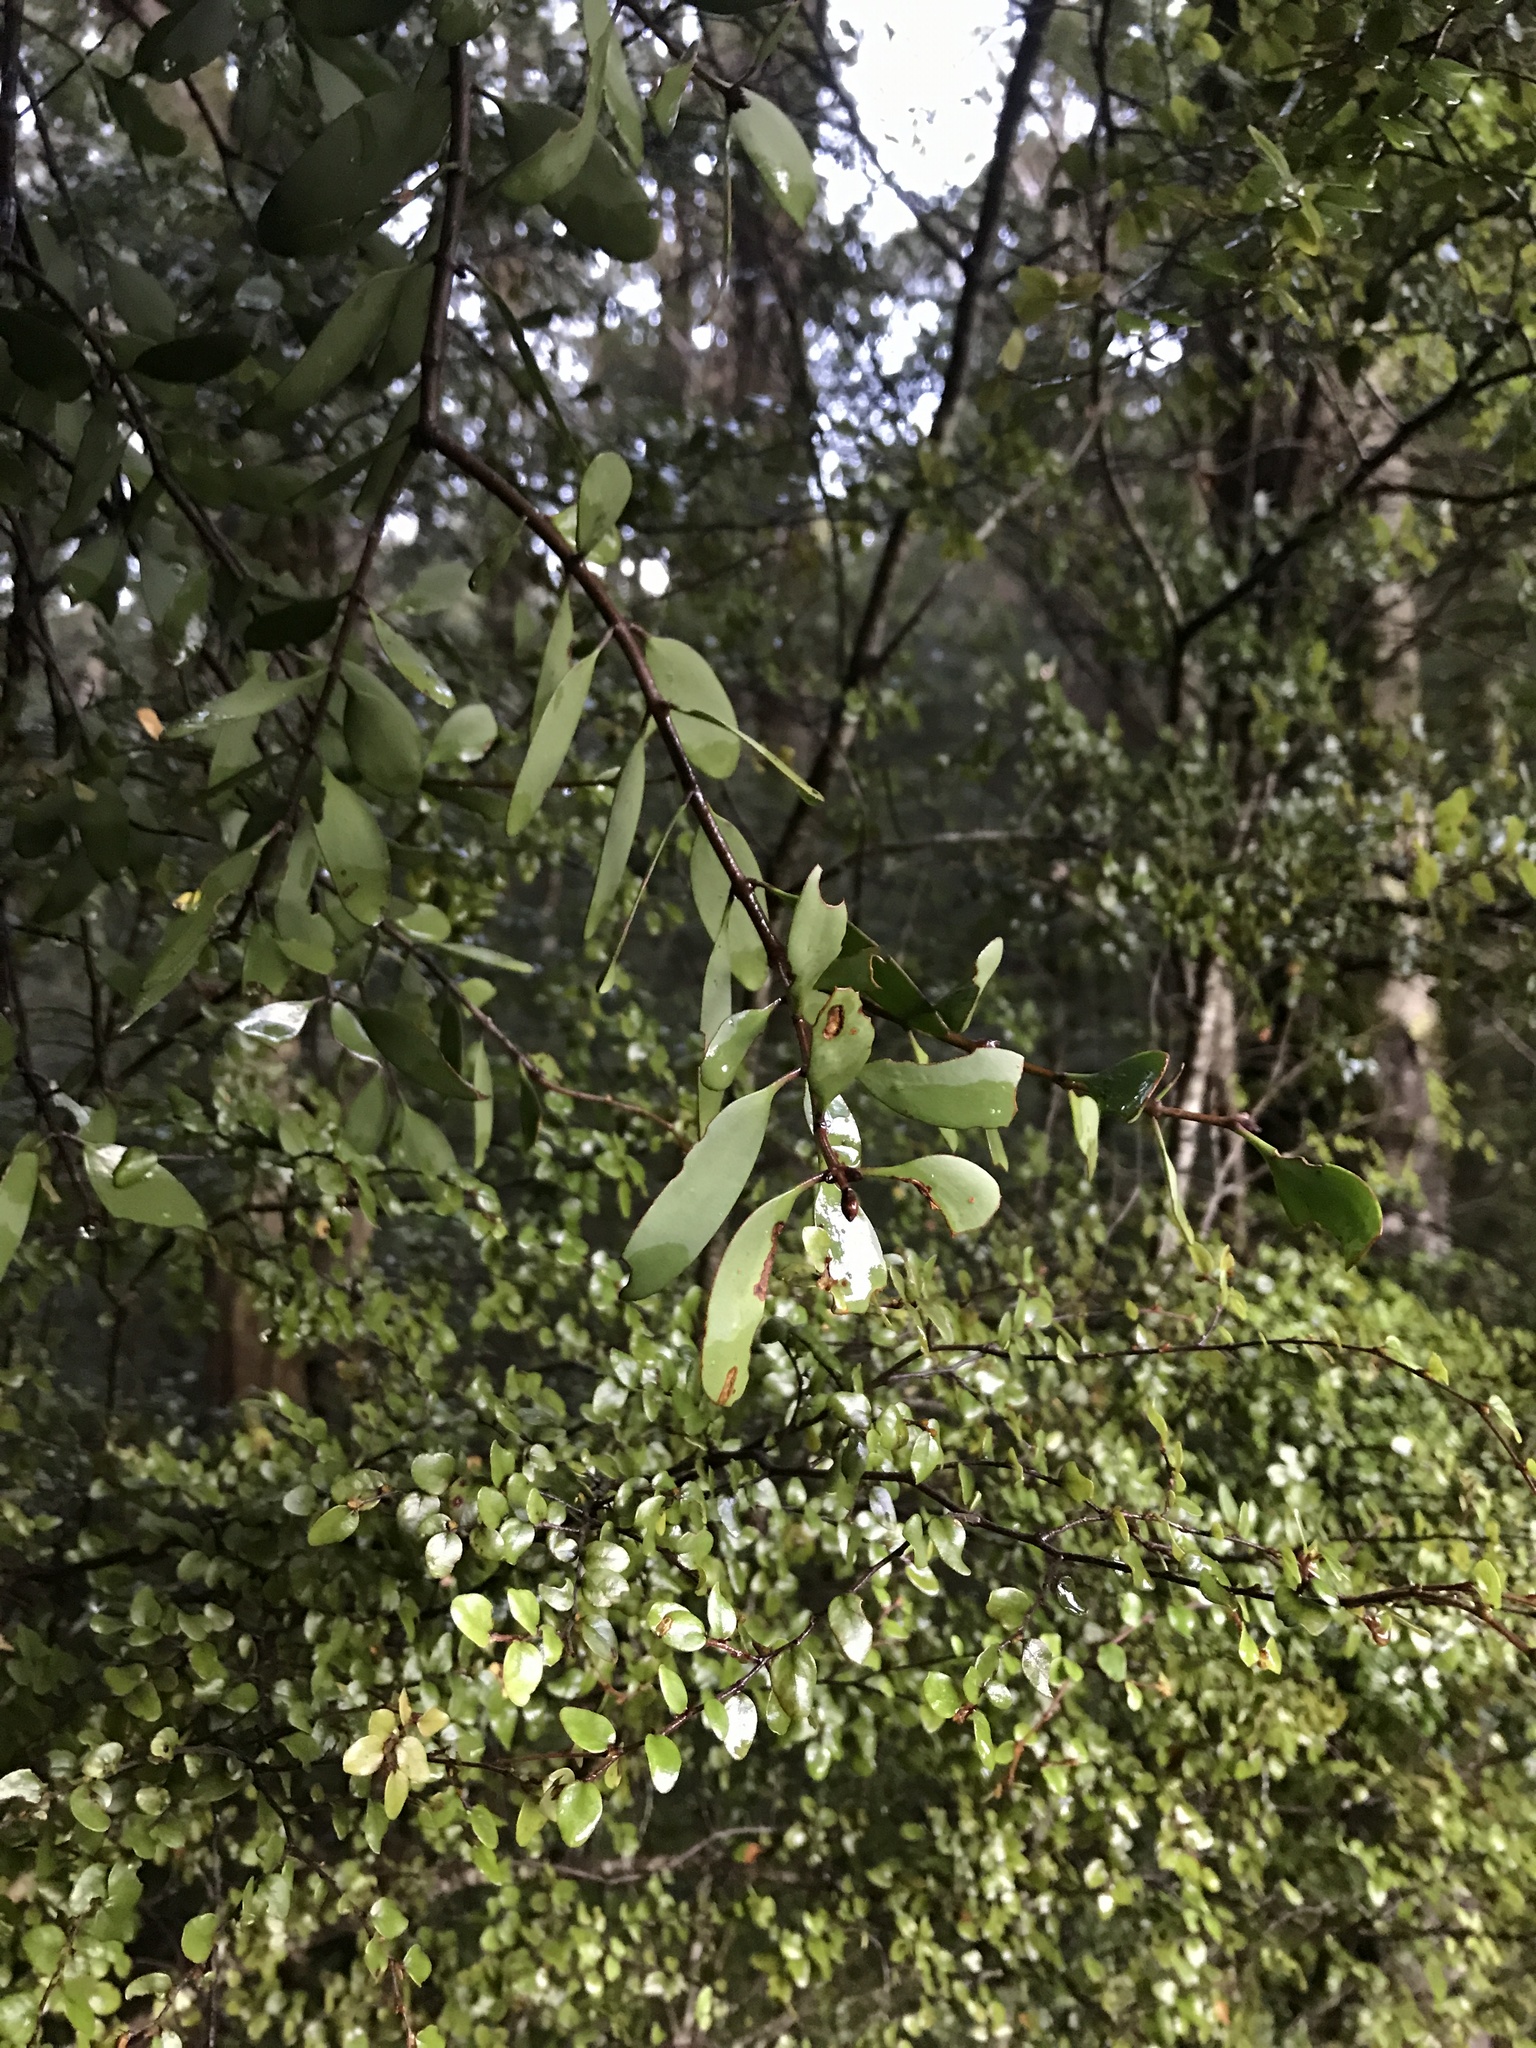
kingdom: Plantae
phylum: Tracheophyta
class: Magnoliopsida
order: Santalales
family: Loranthaceae
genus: Alepis
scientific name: Alepis flavida
